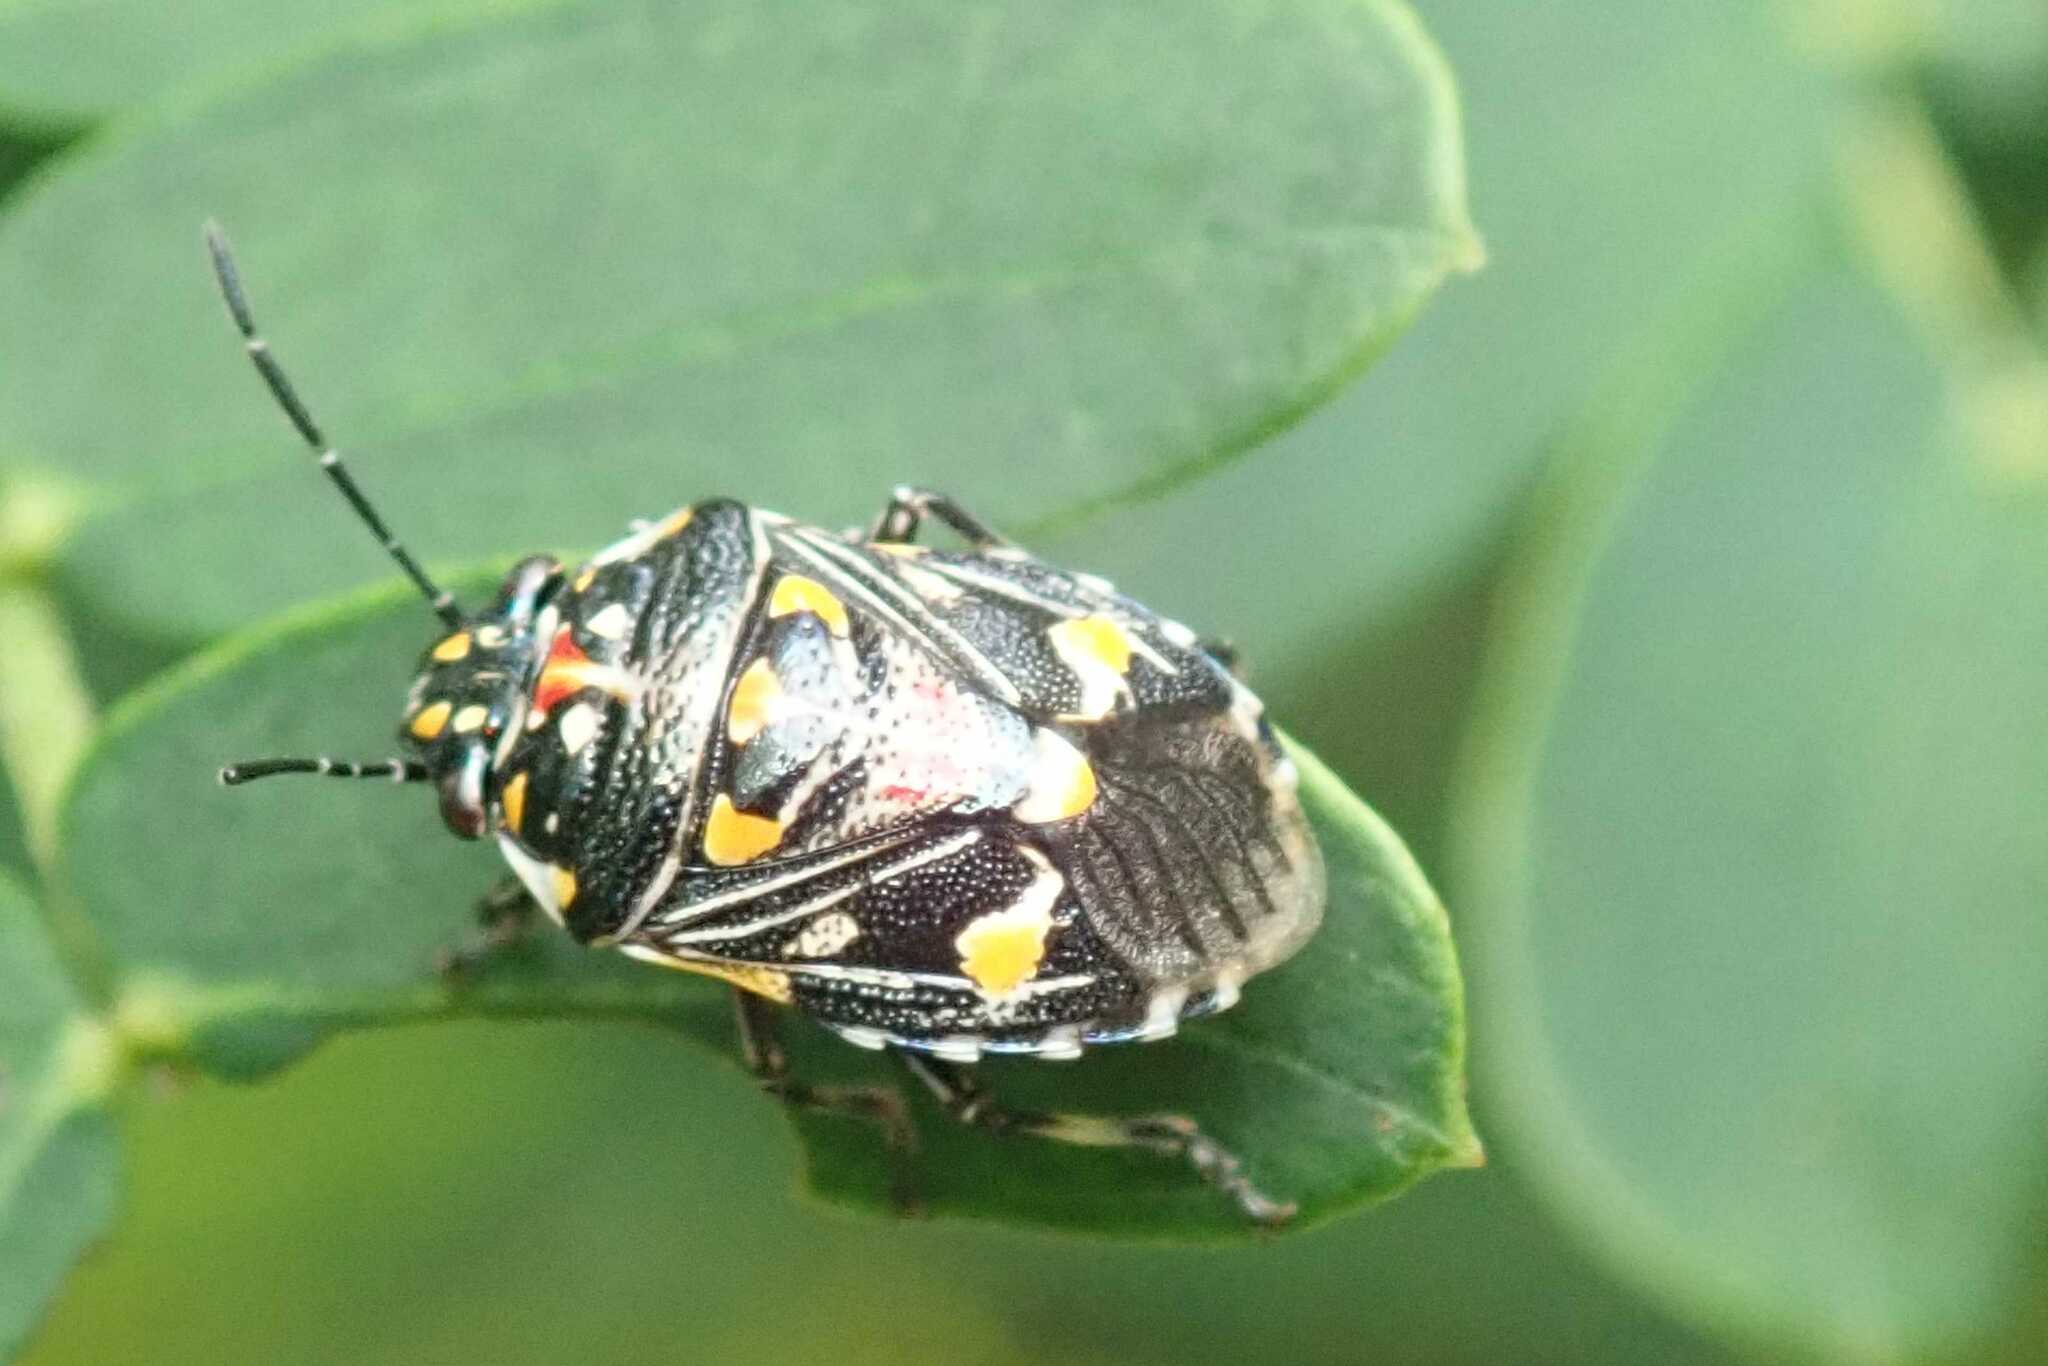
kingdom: Animalia
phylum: Arthropoda
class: Insecta
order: Hemiptera
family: Pentatomidae
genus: Oebalus
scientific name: Oebalus poecilus
